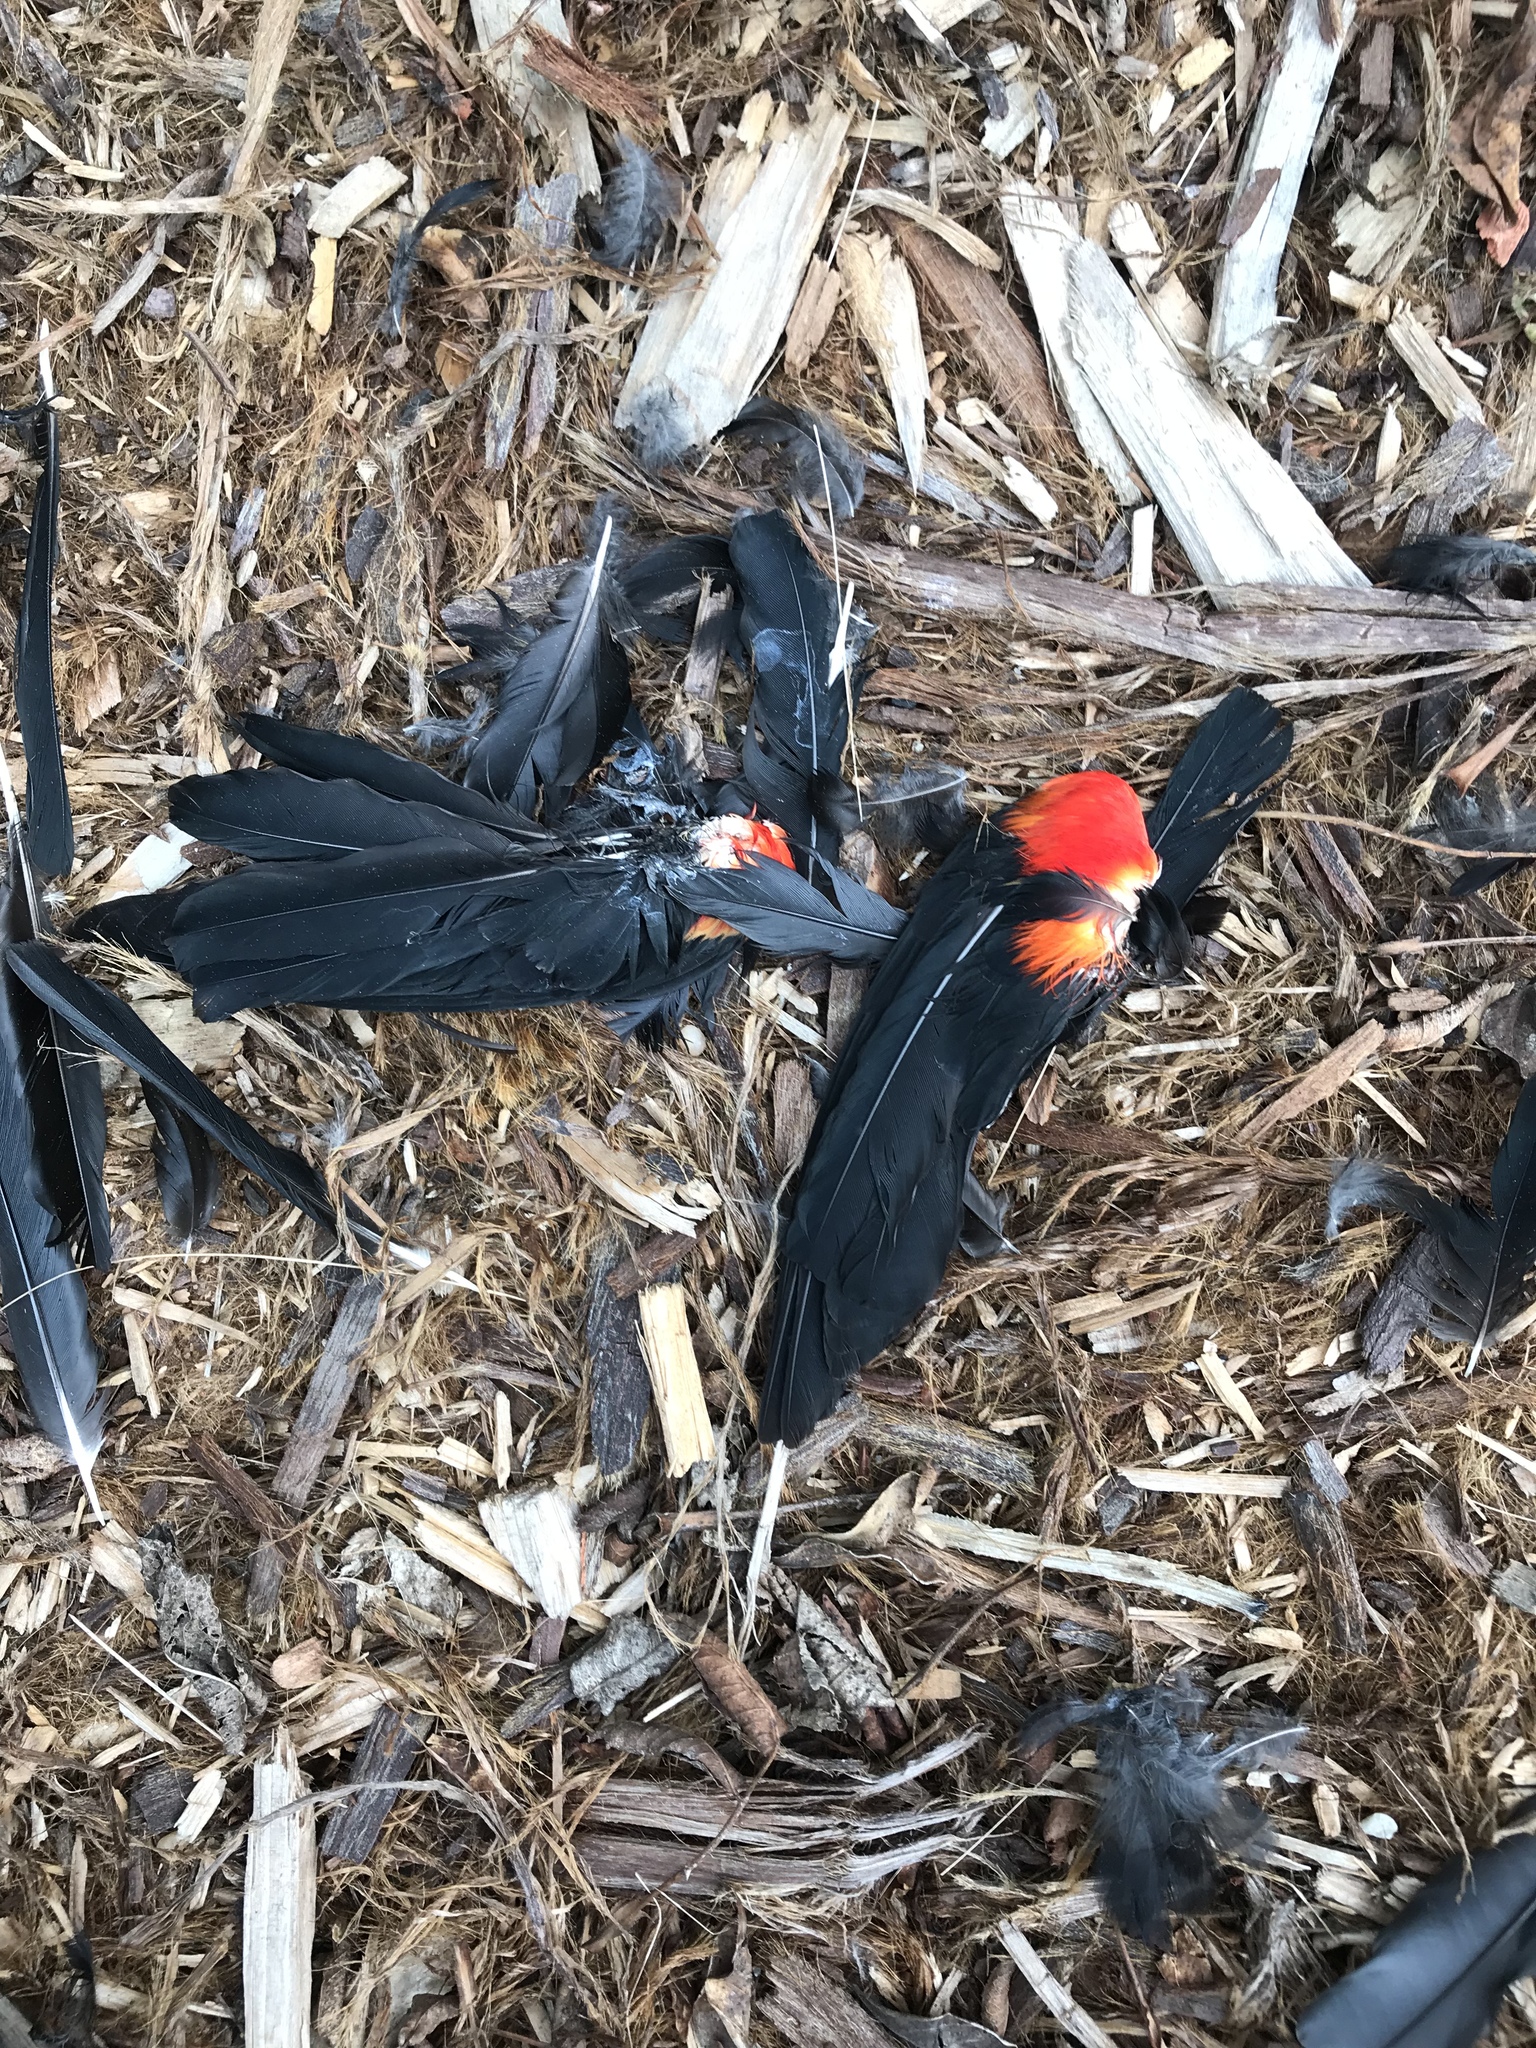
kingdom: Animalia
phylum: Chordata
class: Aves
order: Passeriformes
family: Icteridae
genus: Agelaius
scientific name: Agelaius phoeniceus
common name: Red-winged blackbird
